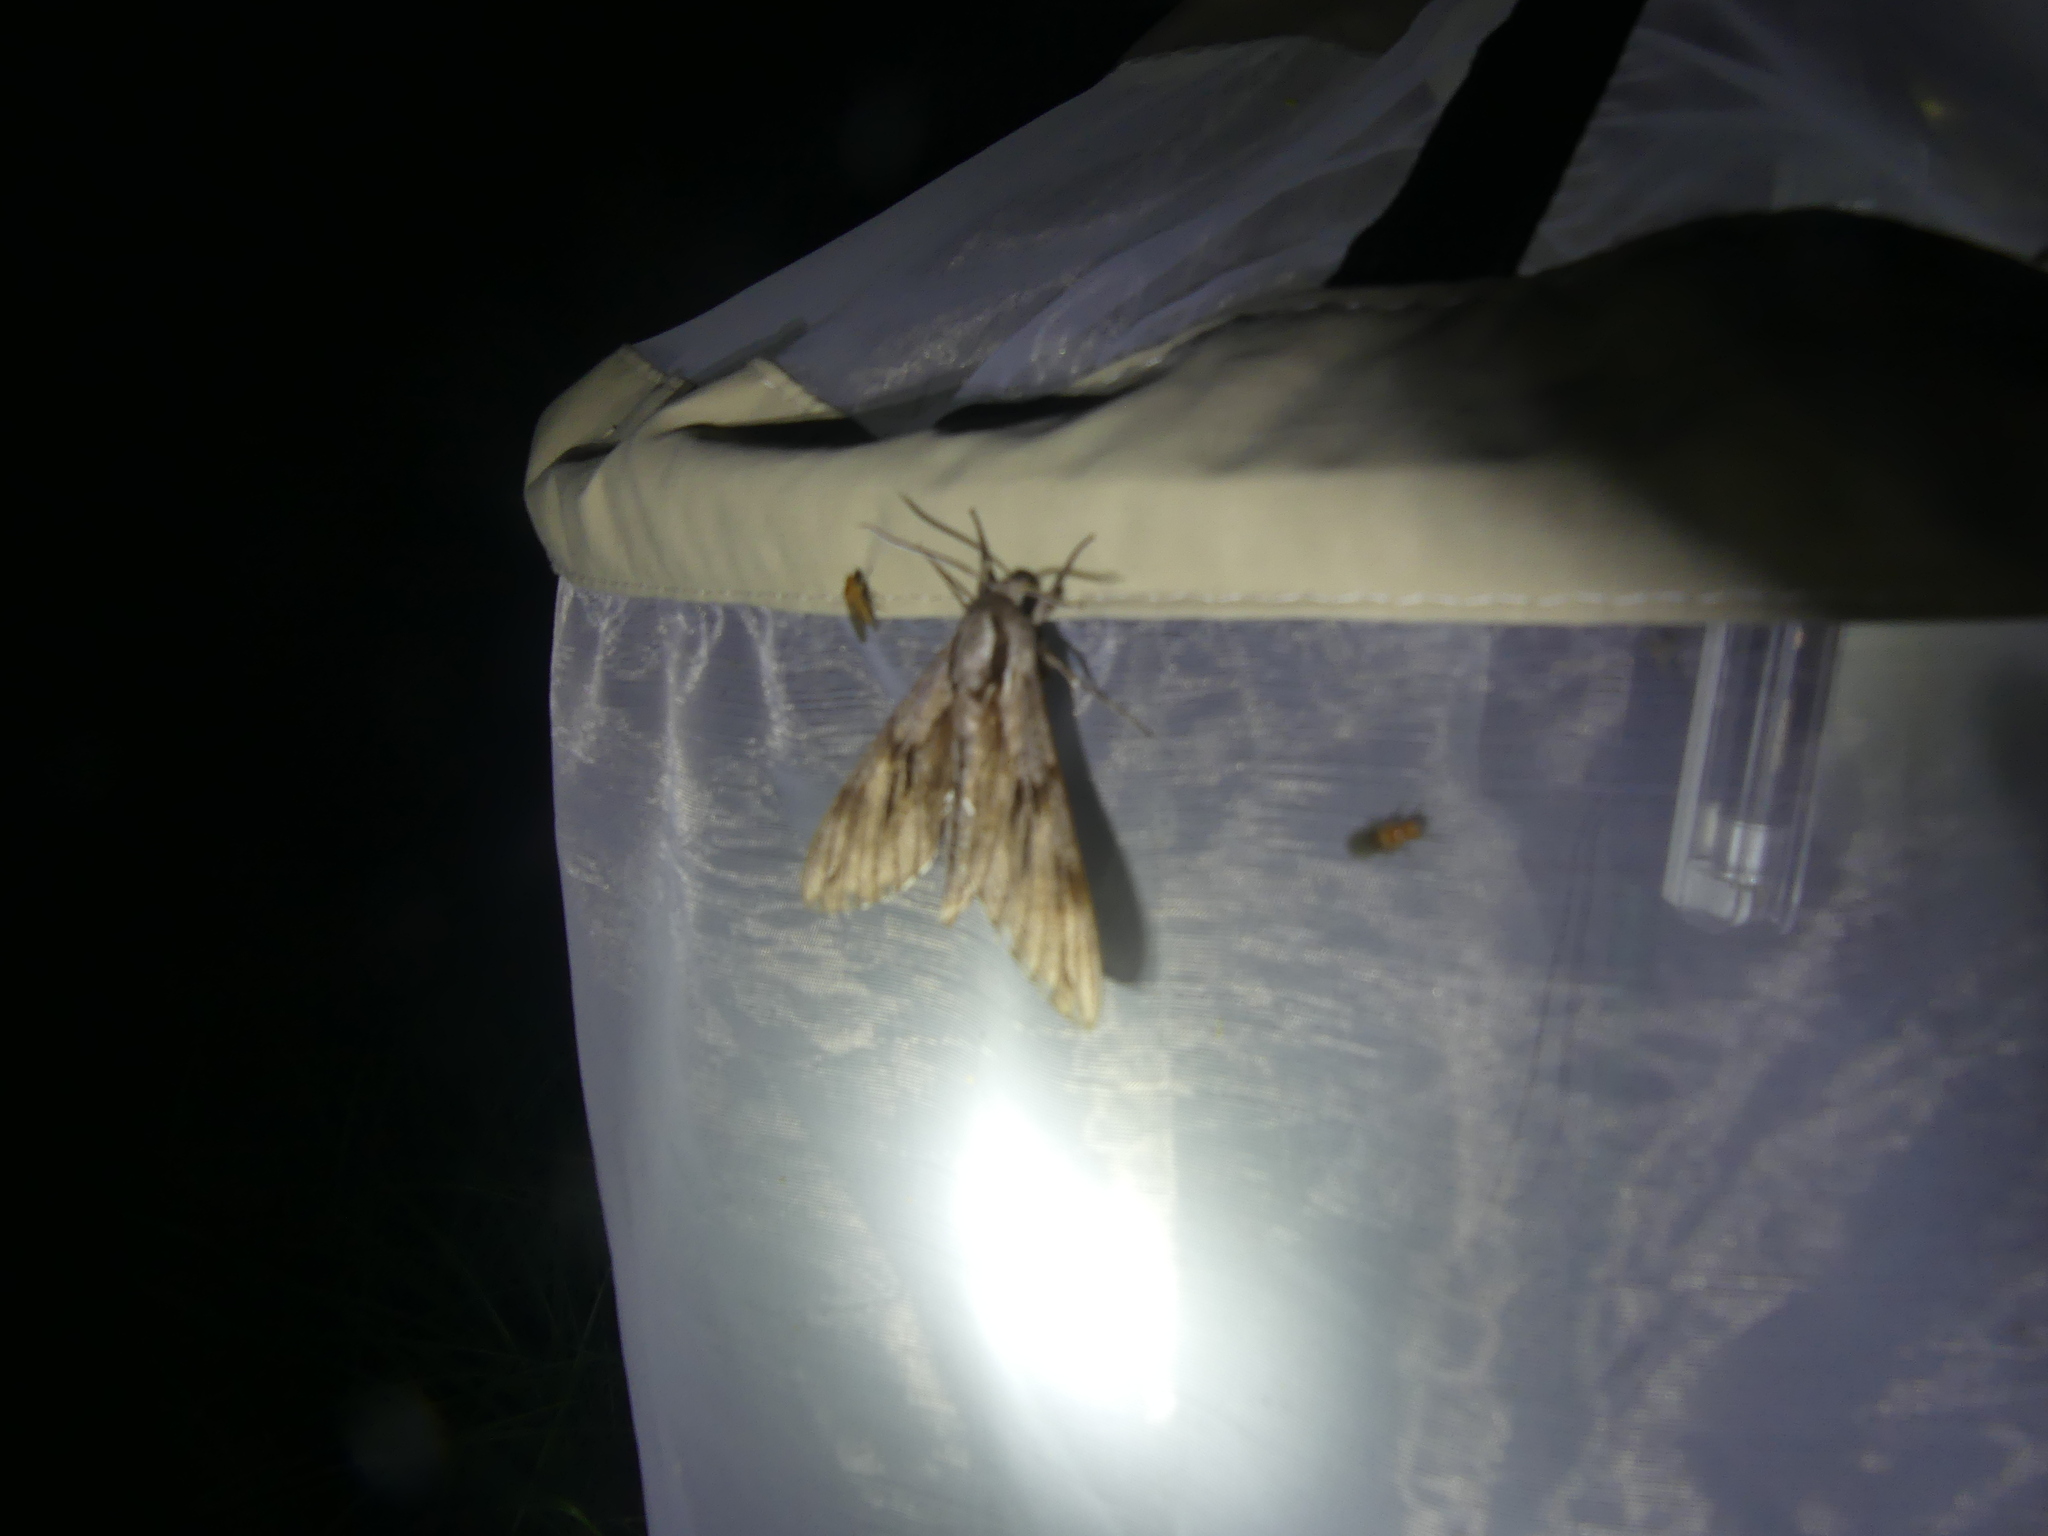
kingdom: Animalia
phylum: Arthropoda
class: Insecta
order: Lepidoptera
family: Sphingidae
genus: Sphinx
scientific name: Sphinx pinastri
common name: Pine hawk-moth
